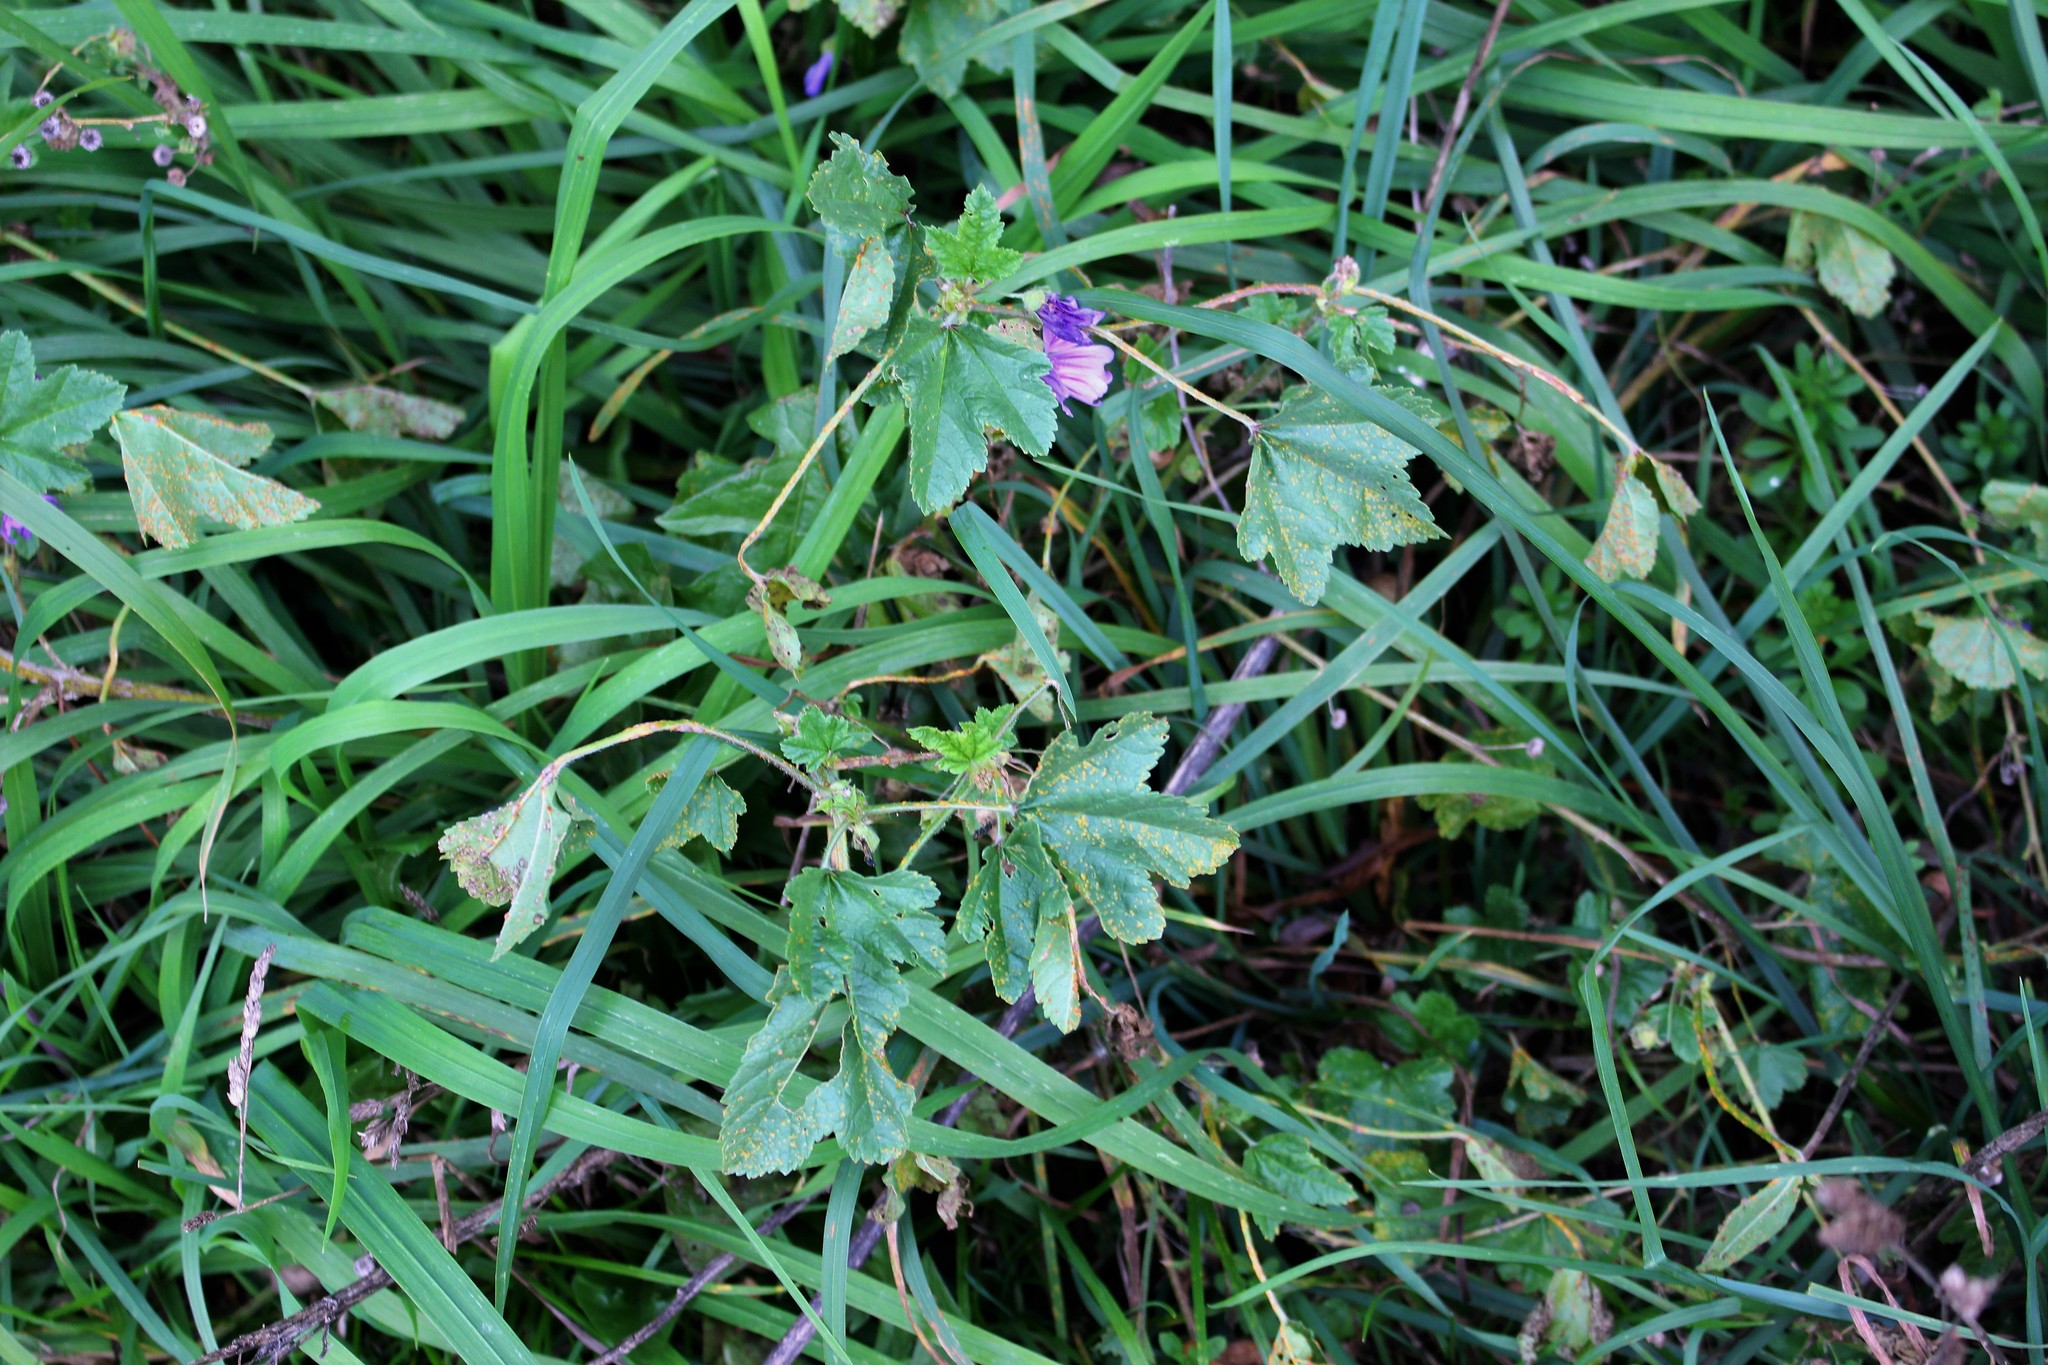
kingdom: Plantae
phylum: Tracheophyta
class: Magnoliopsida
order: Malvales
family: Malvaceae
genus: Malva
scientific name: Malva sylvestris
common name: Common mallow
